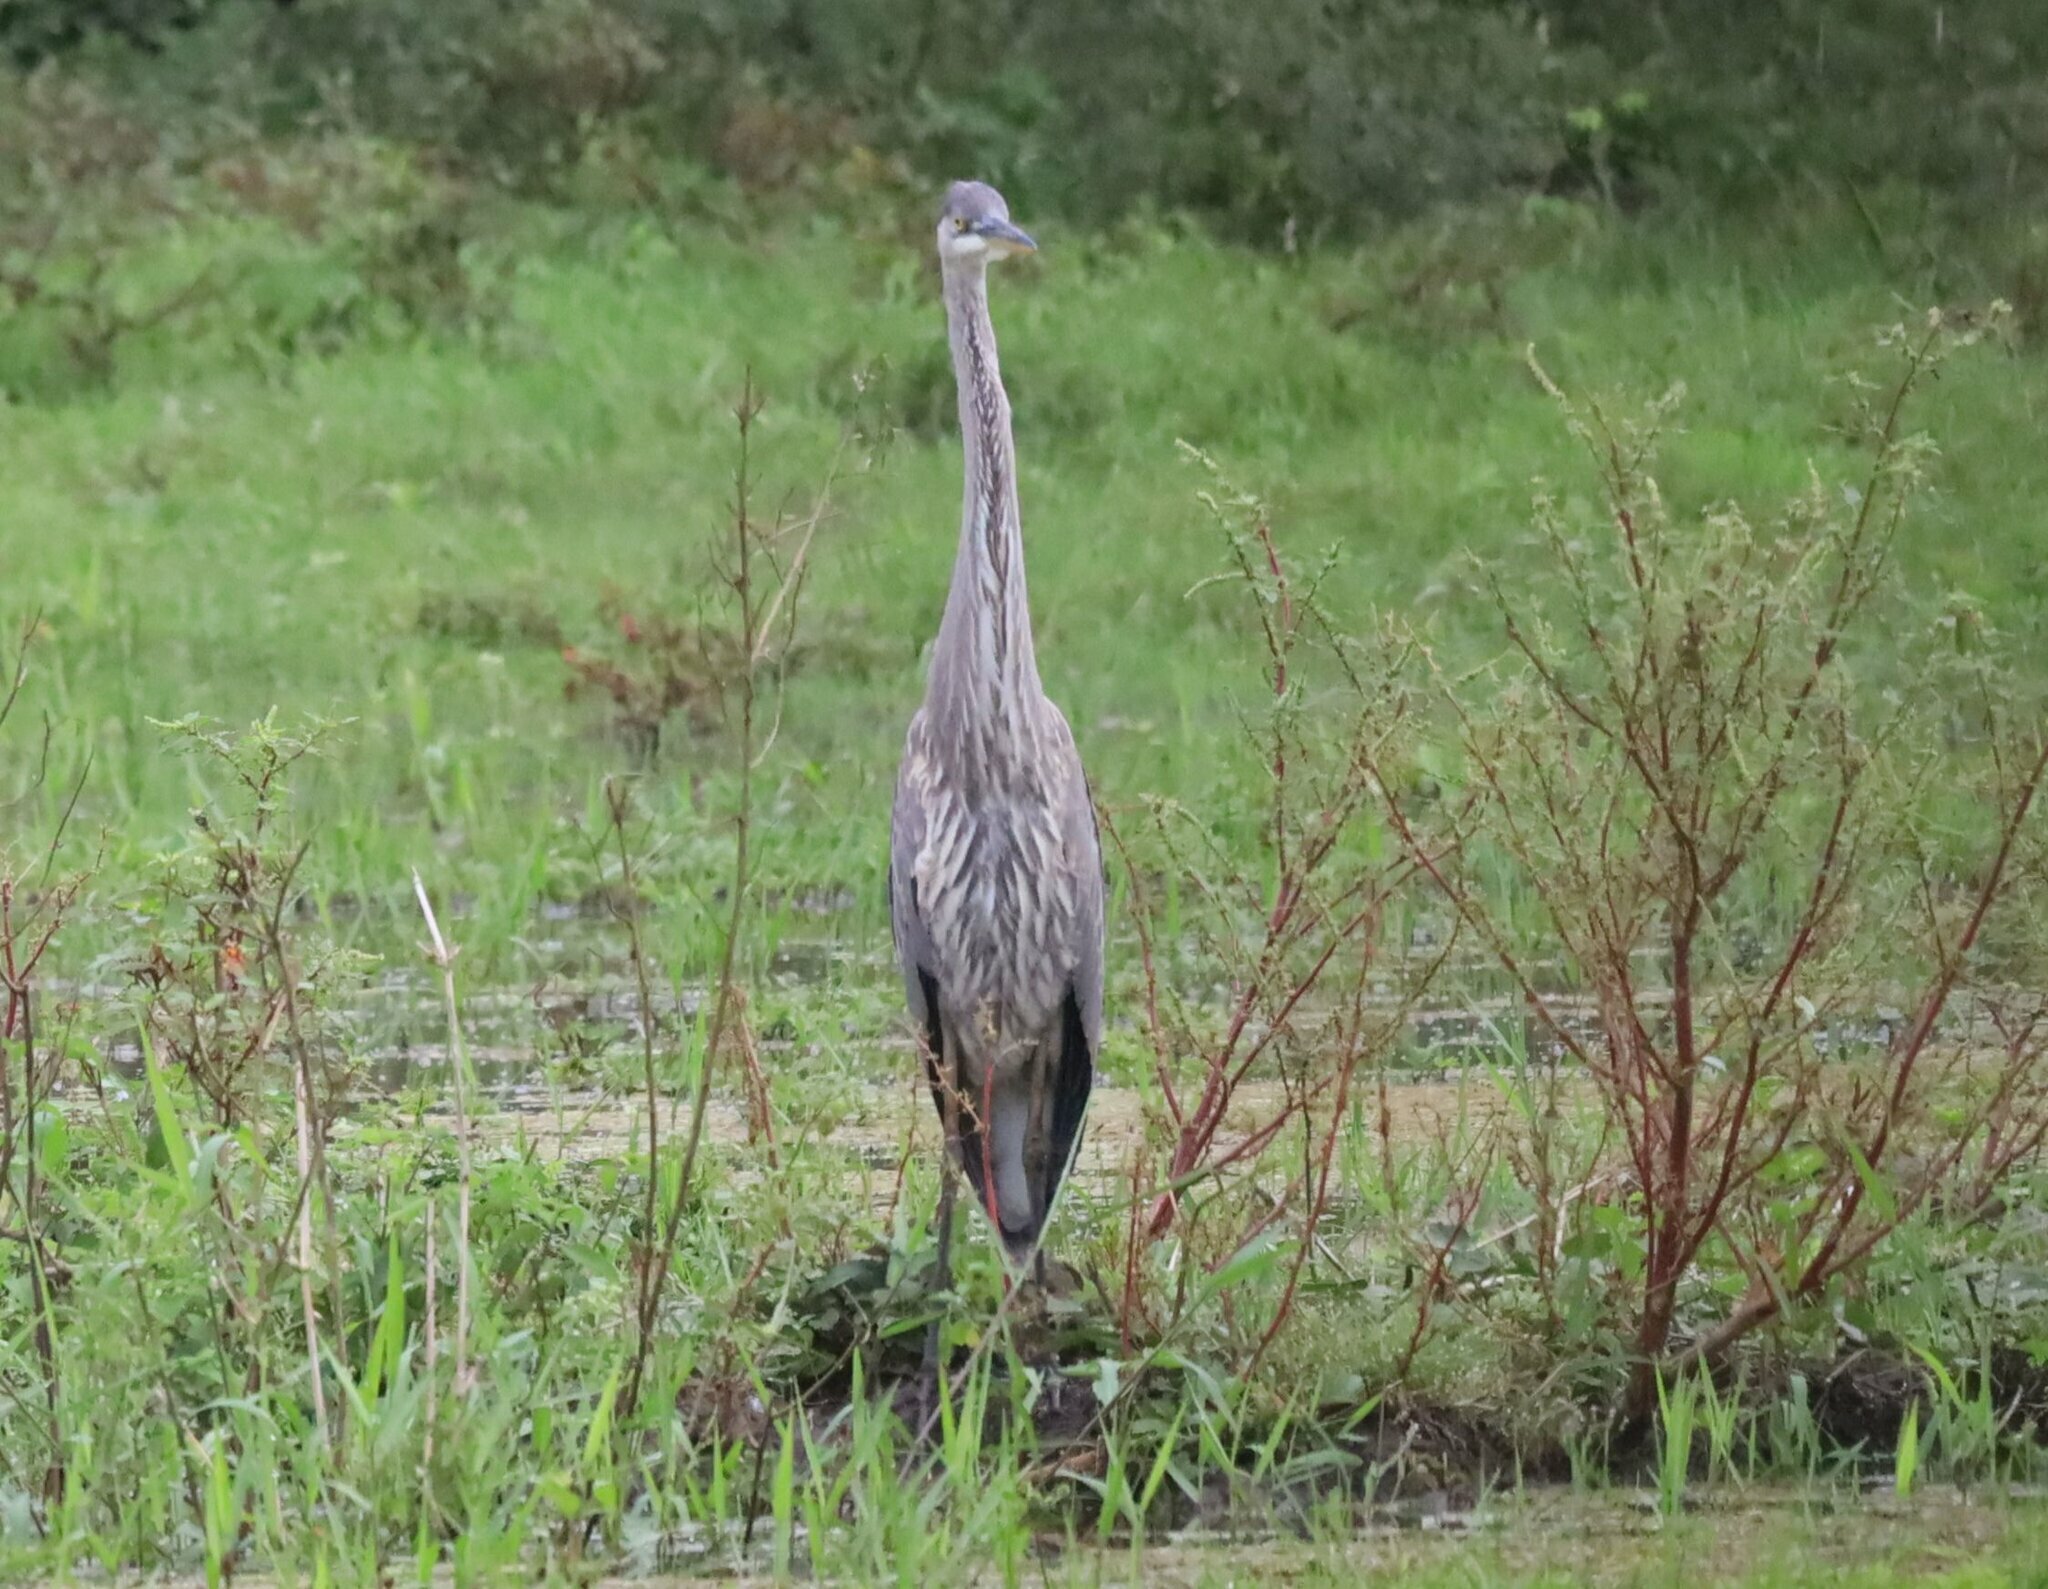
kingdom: Animalia
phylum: Chordata
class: Aves
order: Pelecaniformes
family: Ardeidae
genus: Ardea
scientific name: Ardea herodias
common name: Great blue heron
